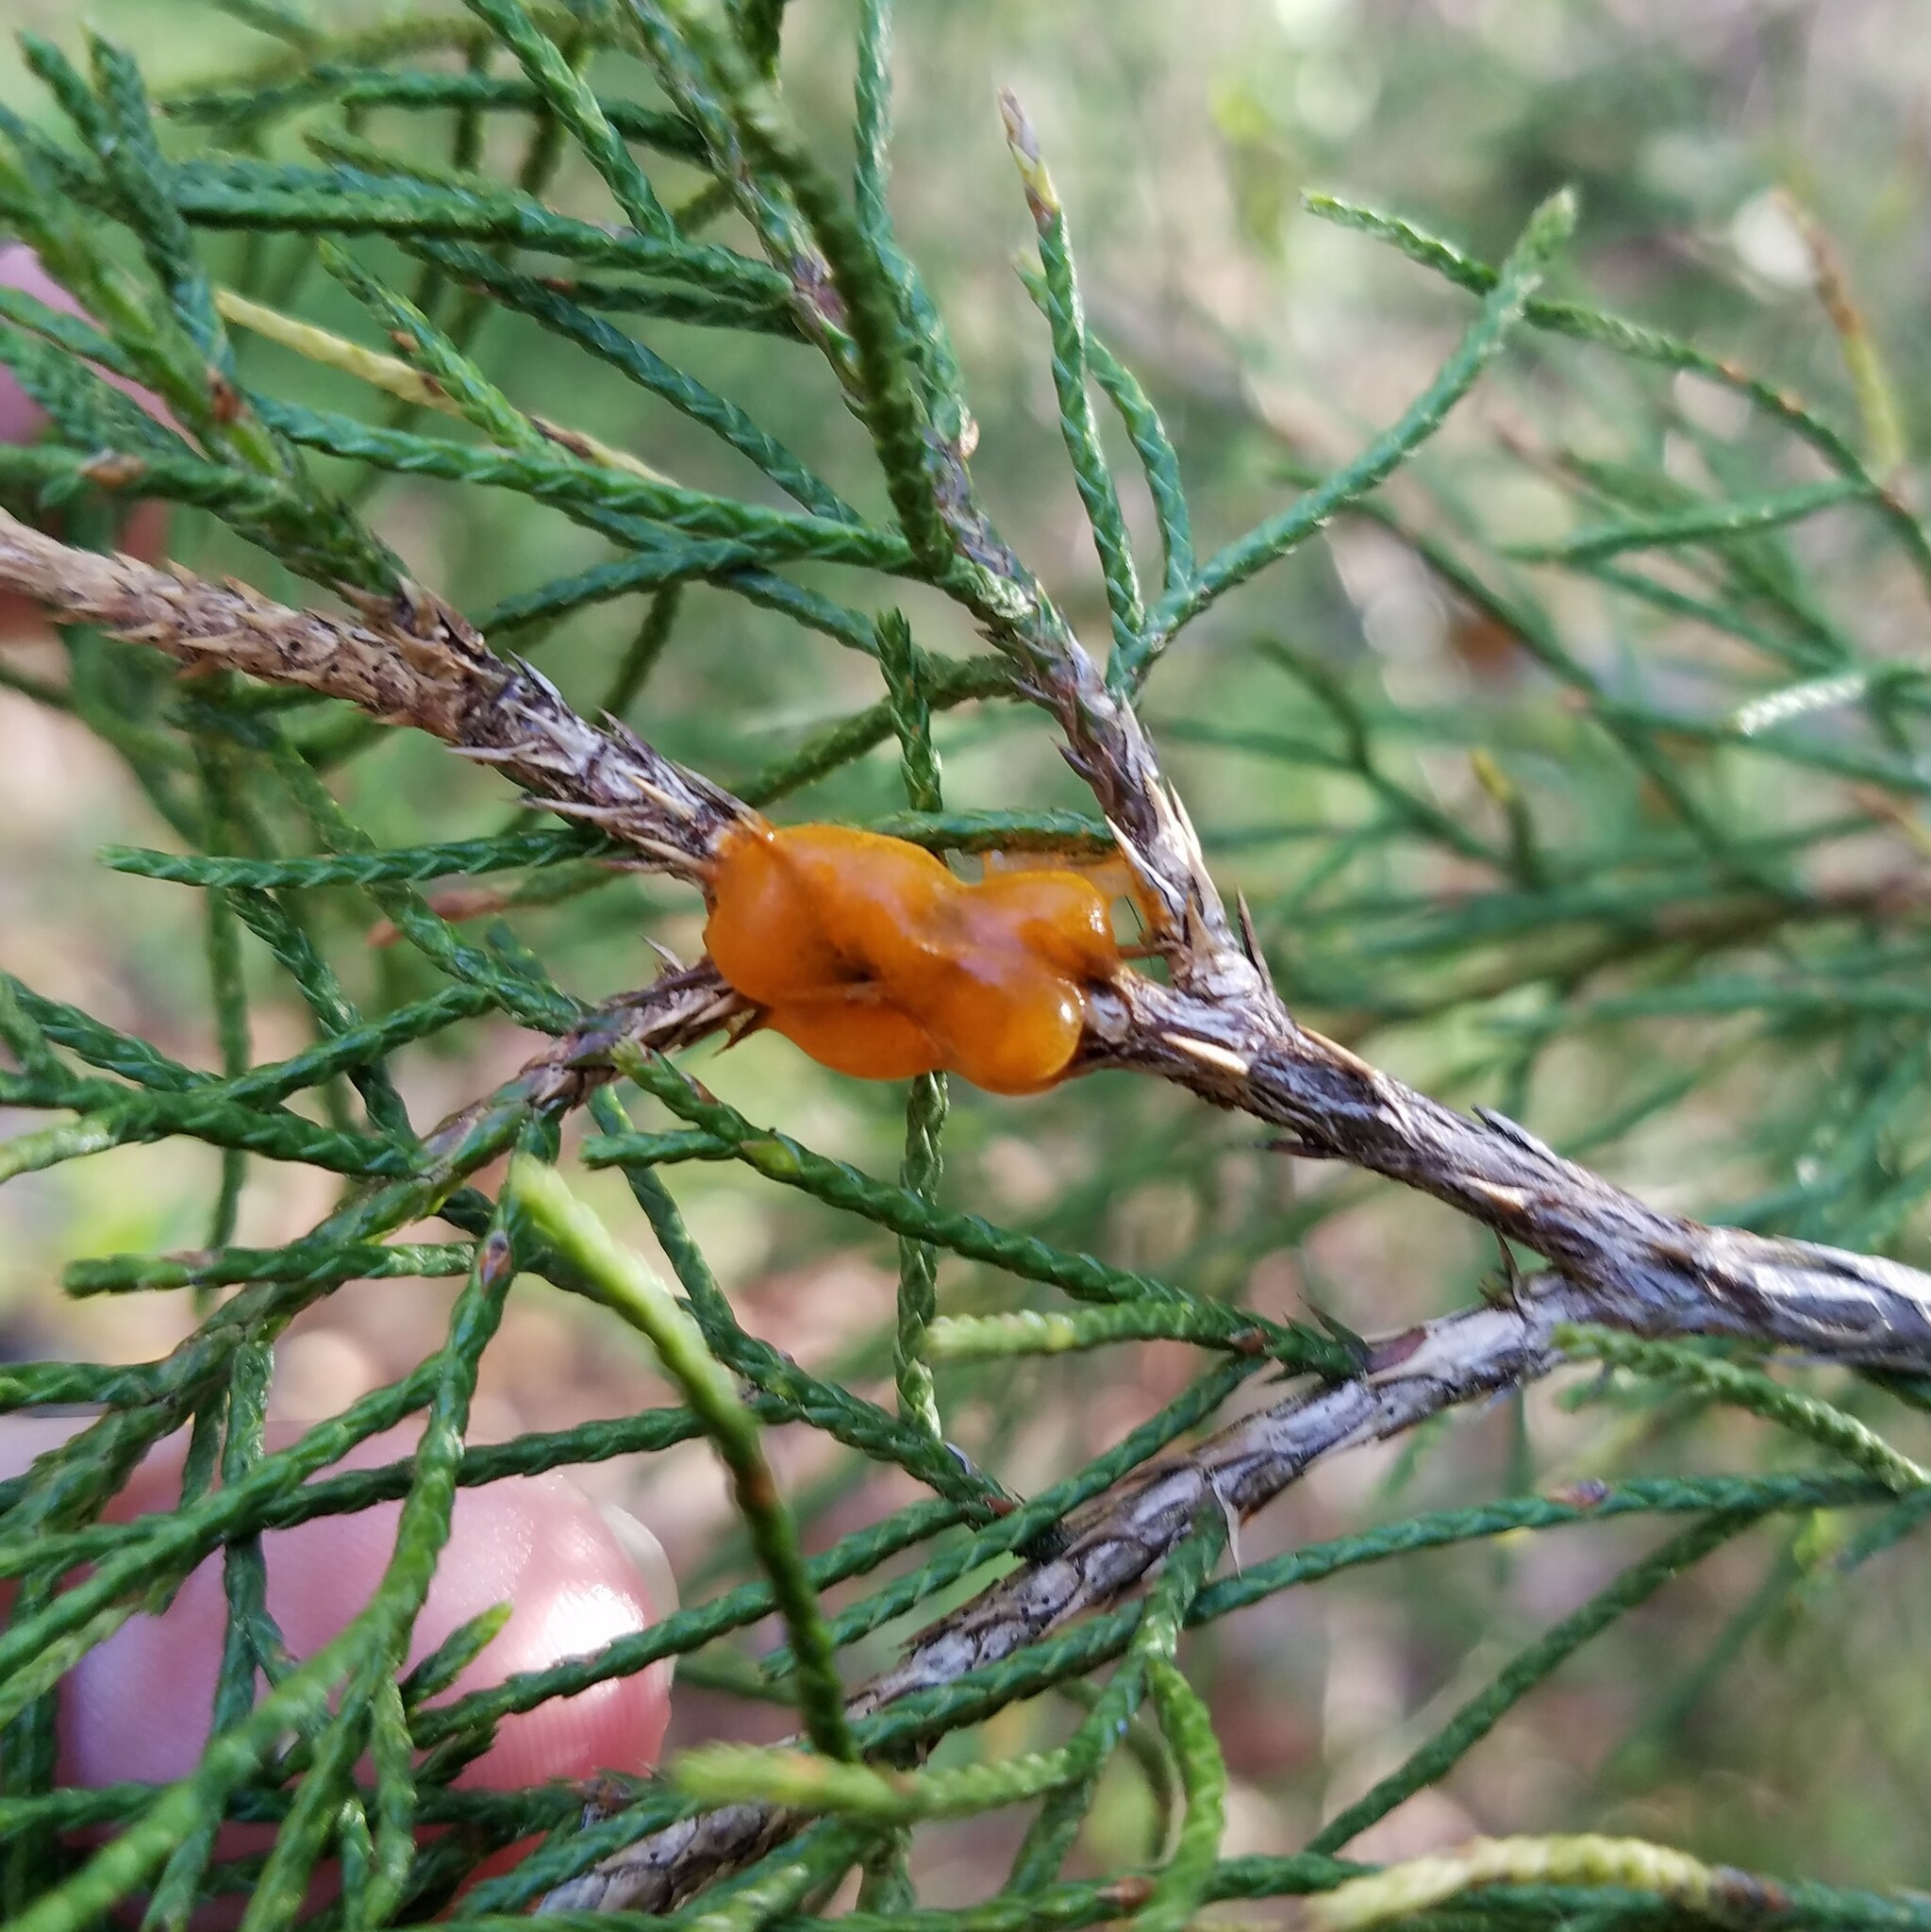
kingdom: Fungi
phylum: Basidiomycota
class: Pucciniomycetes
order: Pucciniales
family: Gymnosporangiaceae
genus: Gymnosporangium
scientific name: Gymnosporangium clavipes
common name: Quince rust
